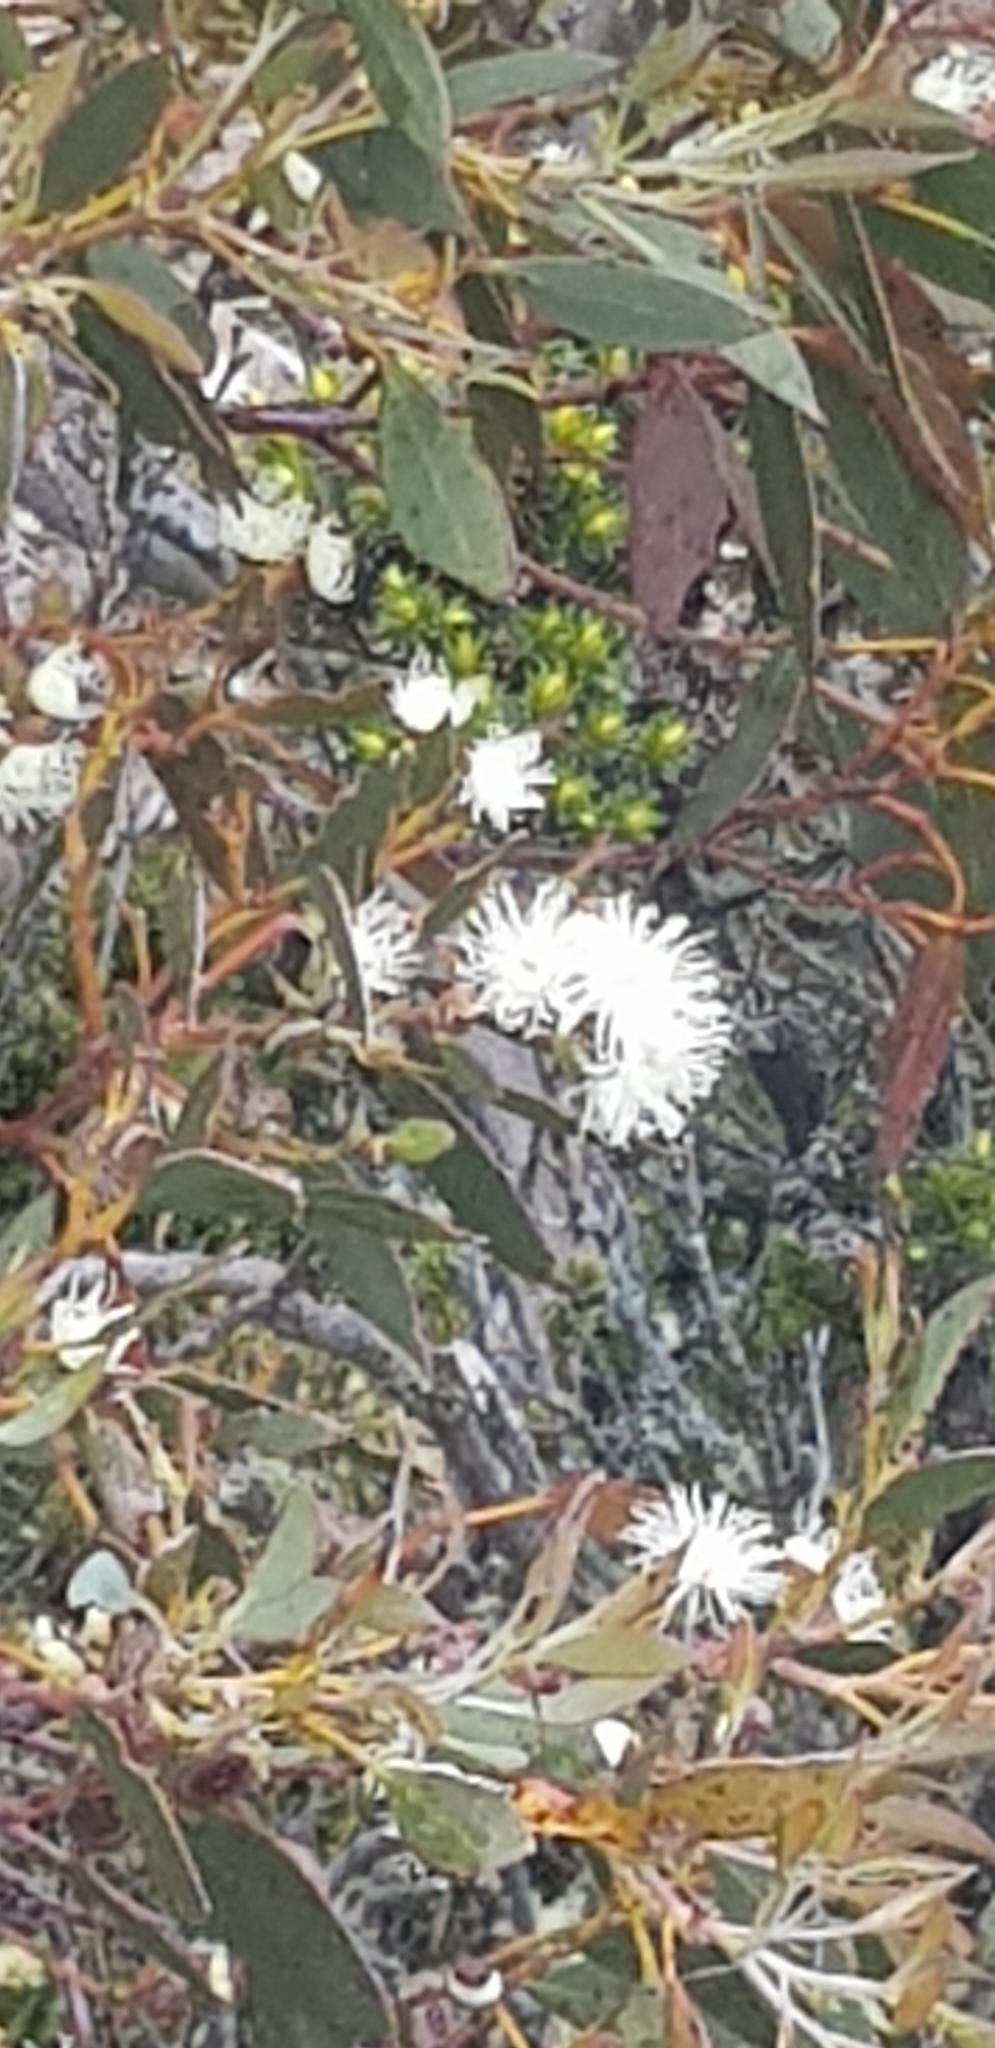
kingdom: Plantae
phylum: Tracheophyta
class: Magnoliopsida
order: Myrtales
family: Myrtaceae
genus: Eucalyptus
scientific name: Eucalyptus coccifera
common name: Tasmanian snow-gum
